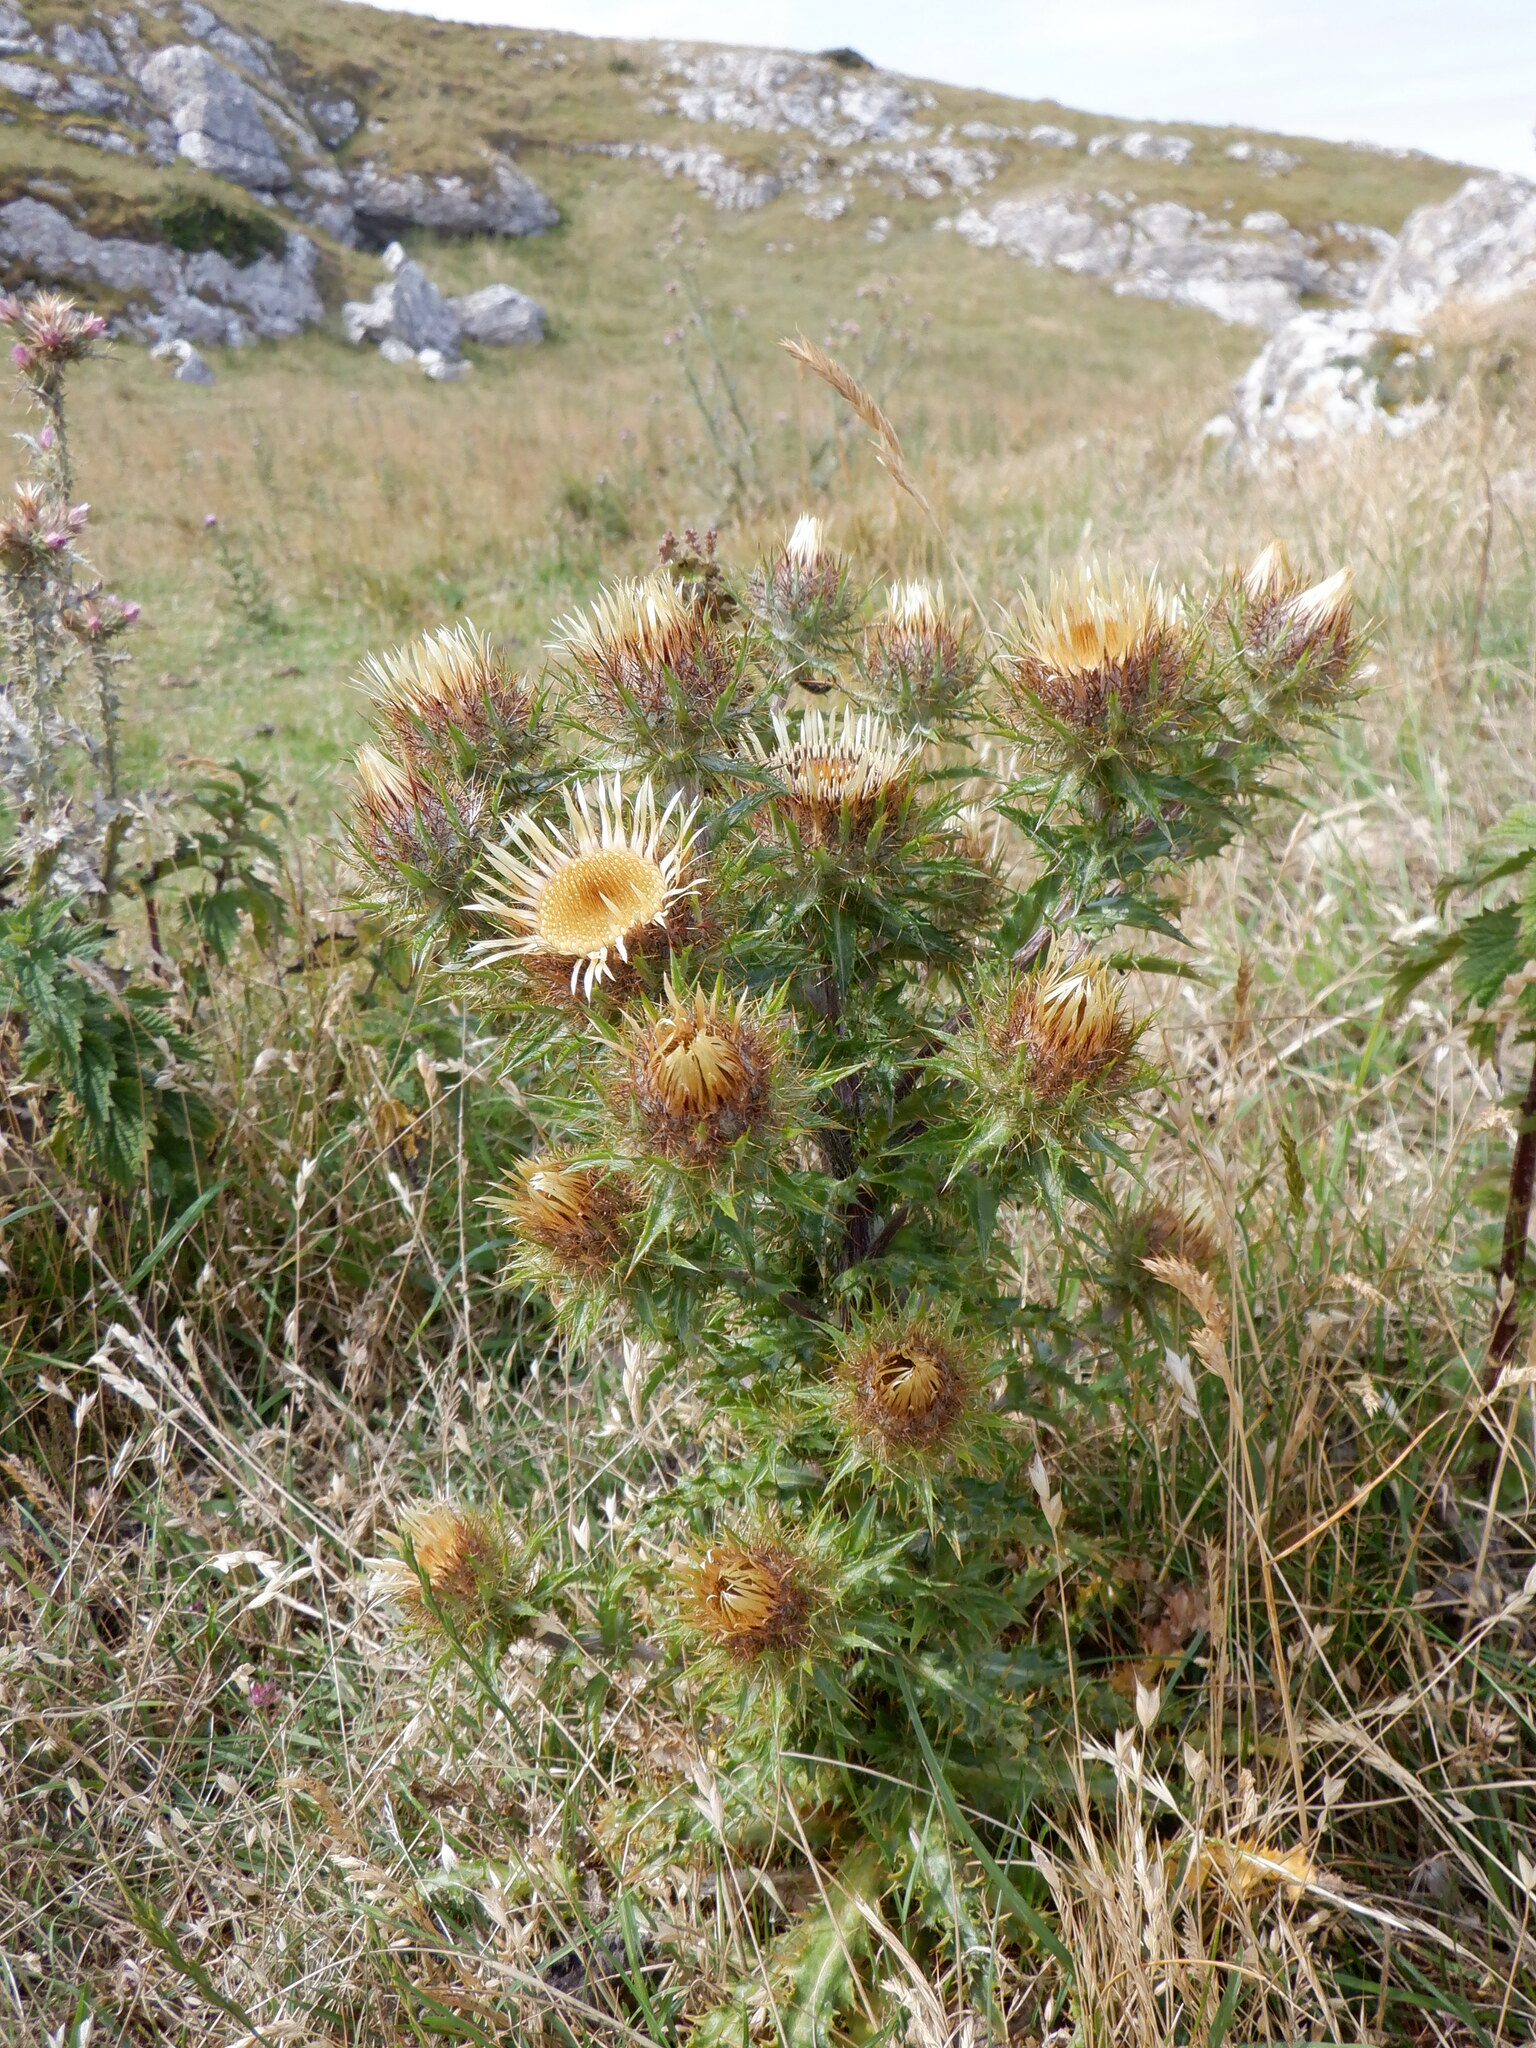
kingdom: Plantae
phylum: Tracheophyta
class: Magnoliopsida
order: Asterales
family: Asteraceae
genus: Carlina
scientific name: Carlina vulgaris
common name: Carline thistle
